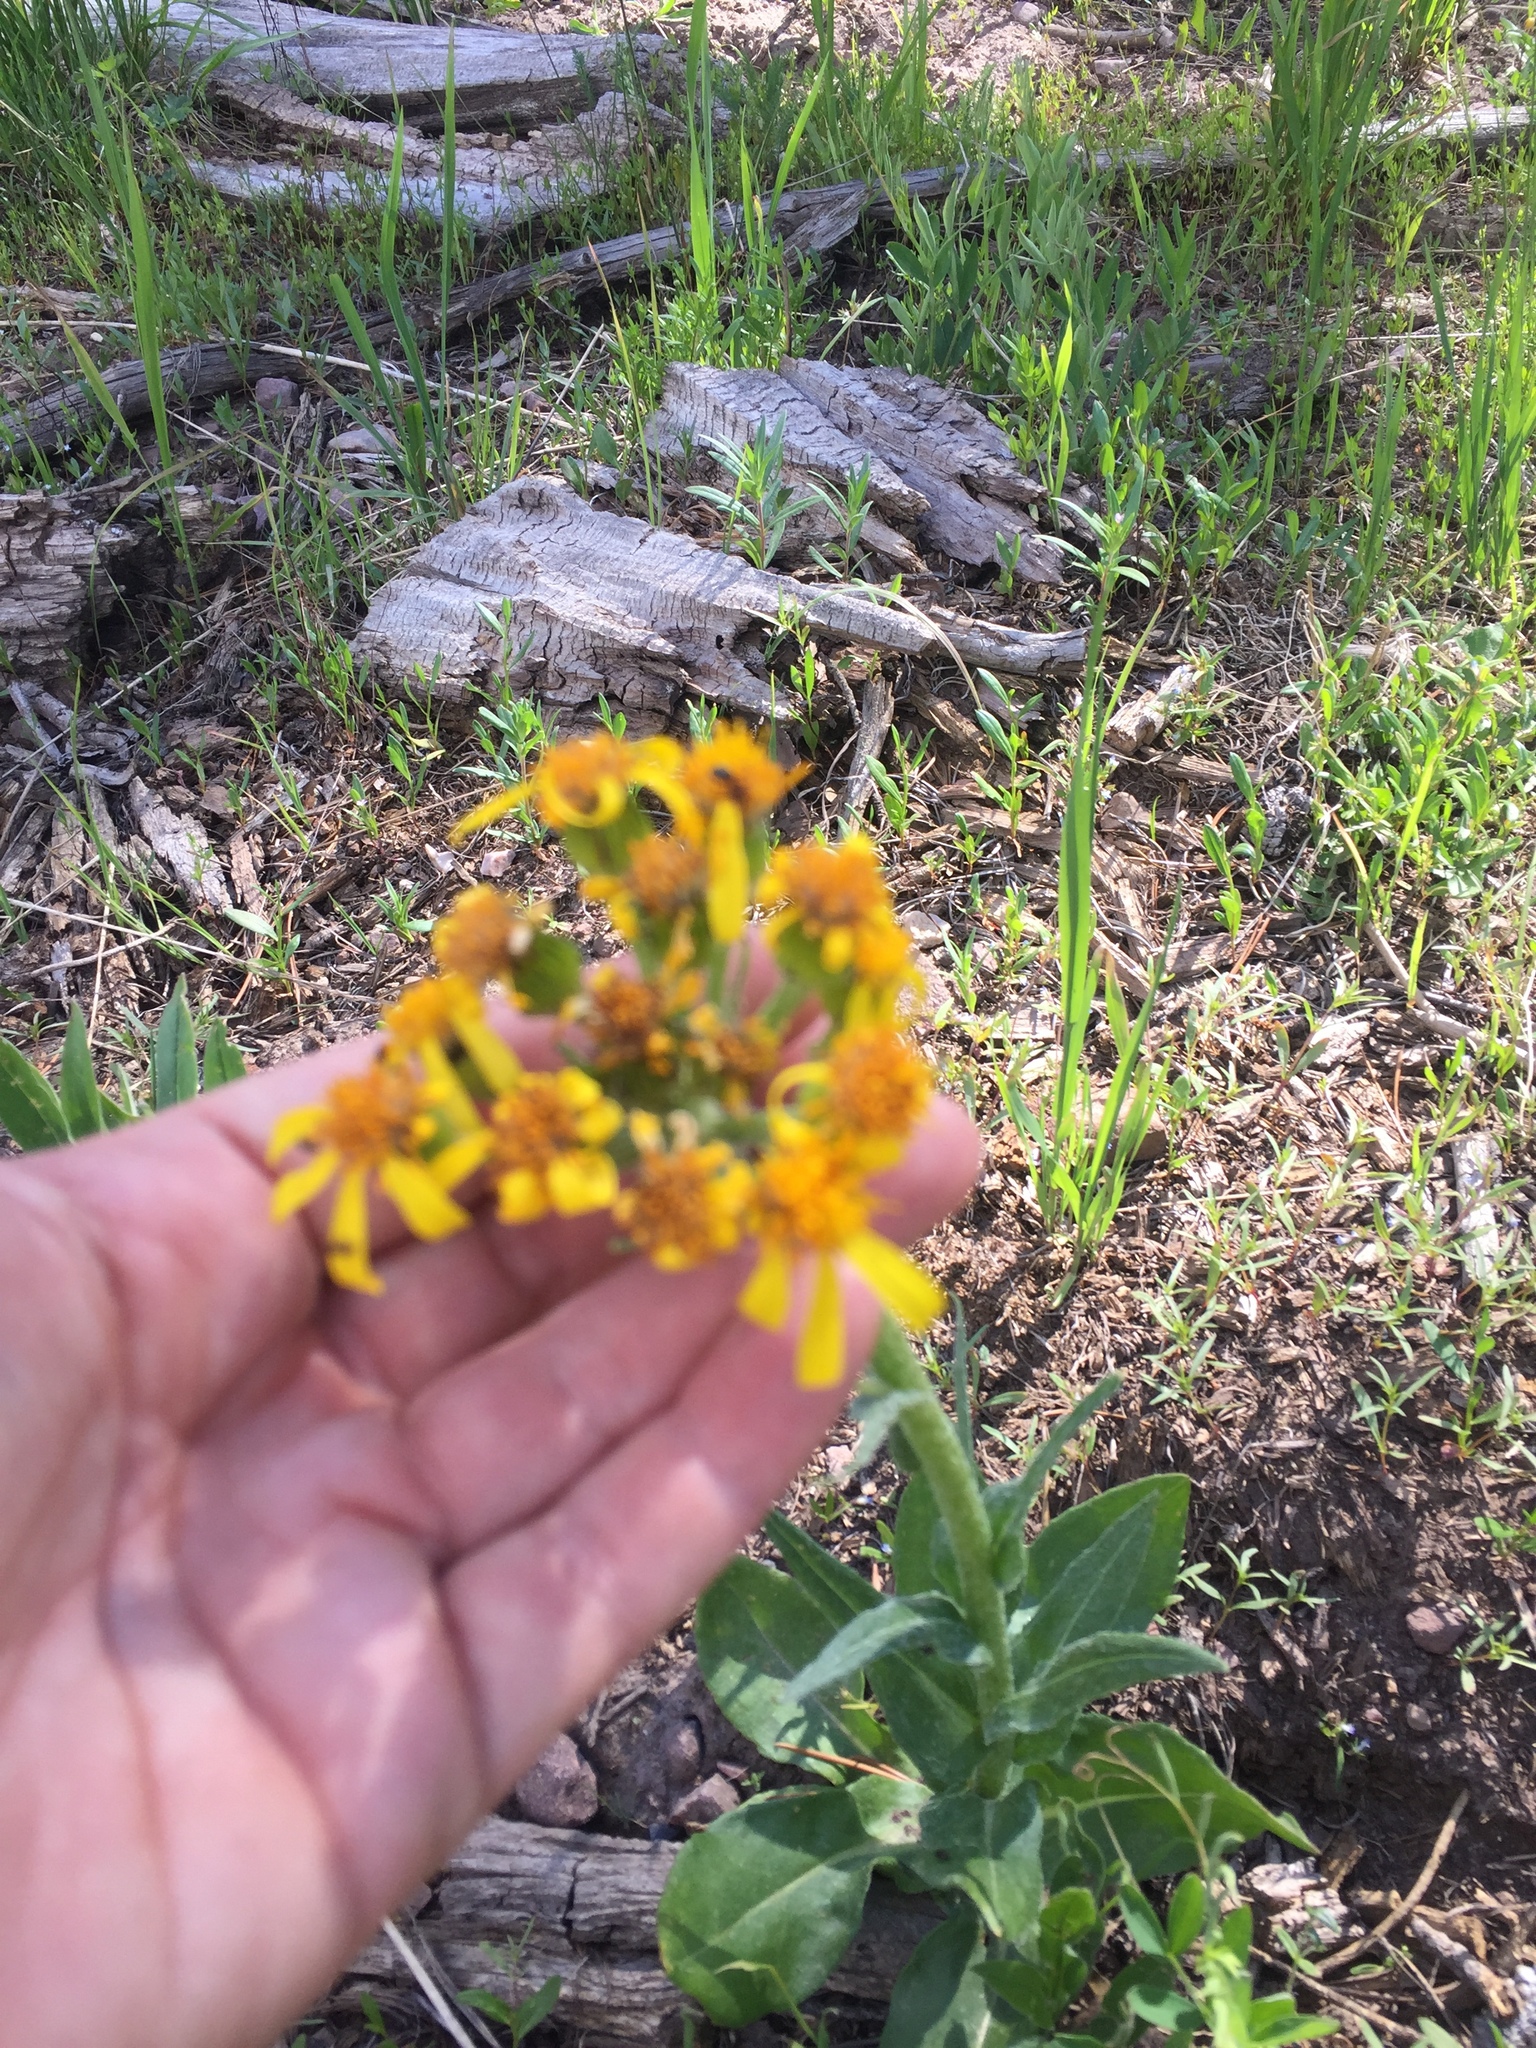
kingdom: Plantae
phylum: Tracheophyta
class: Magnoliopsida
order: Asterales
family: Asteraceae
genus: Senecio
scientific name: Senecio integerrimus
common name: Gaugeplant
